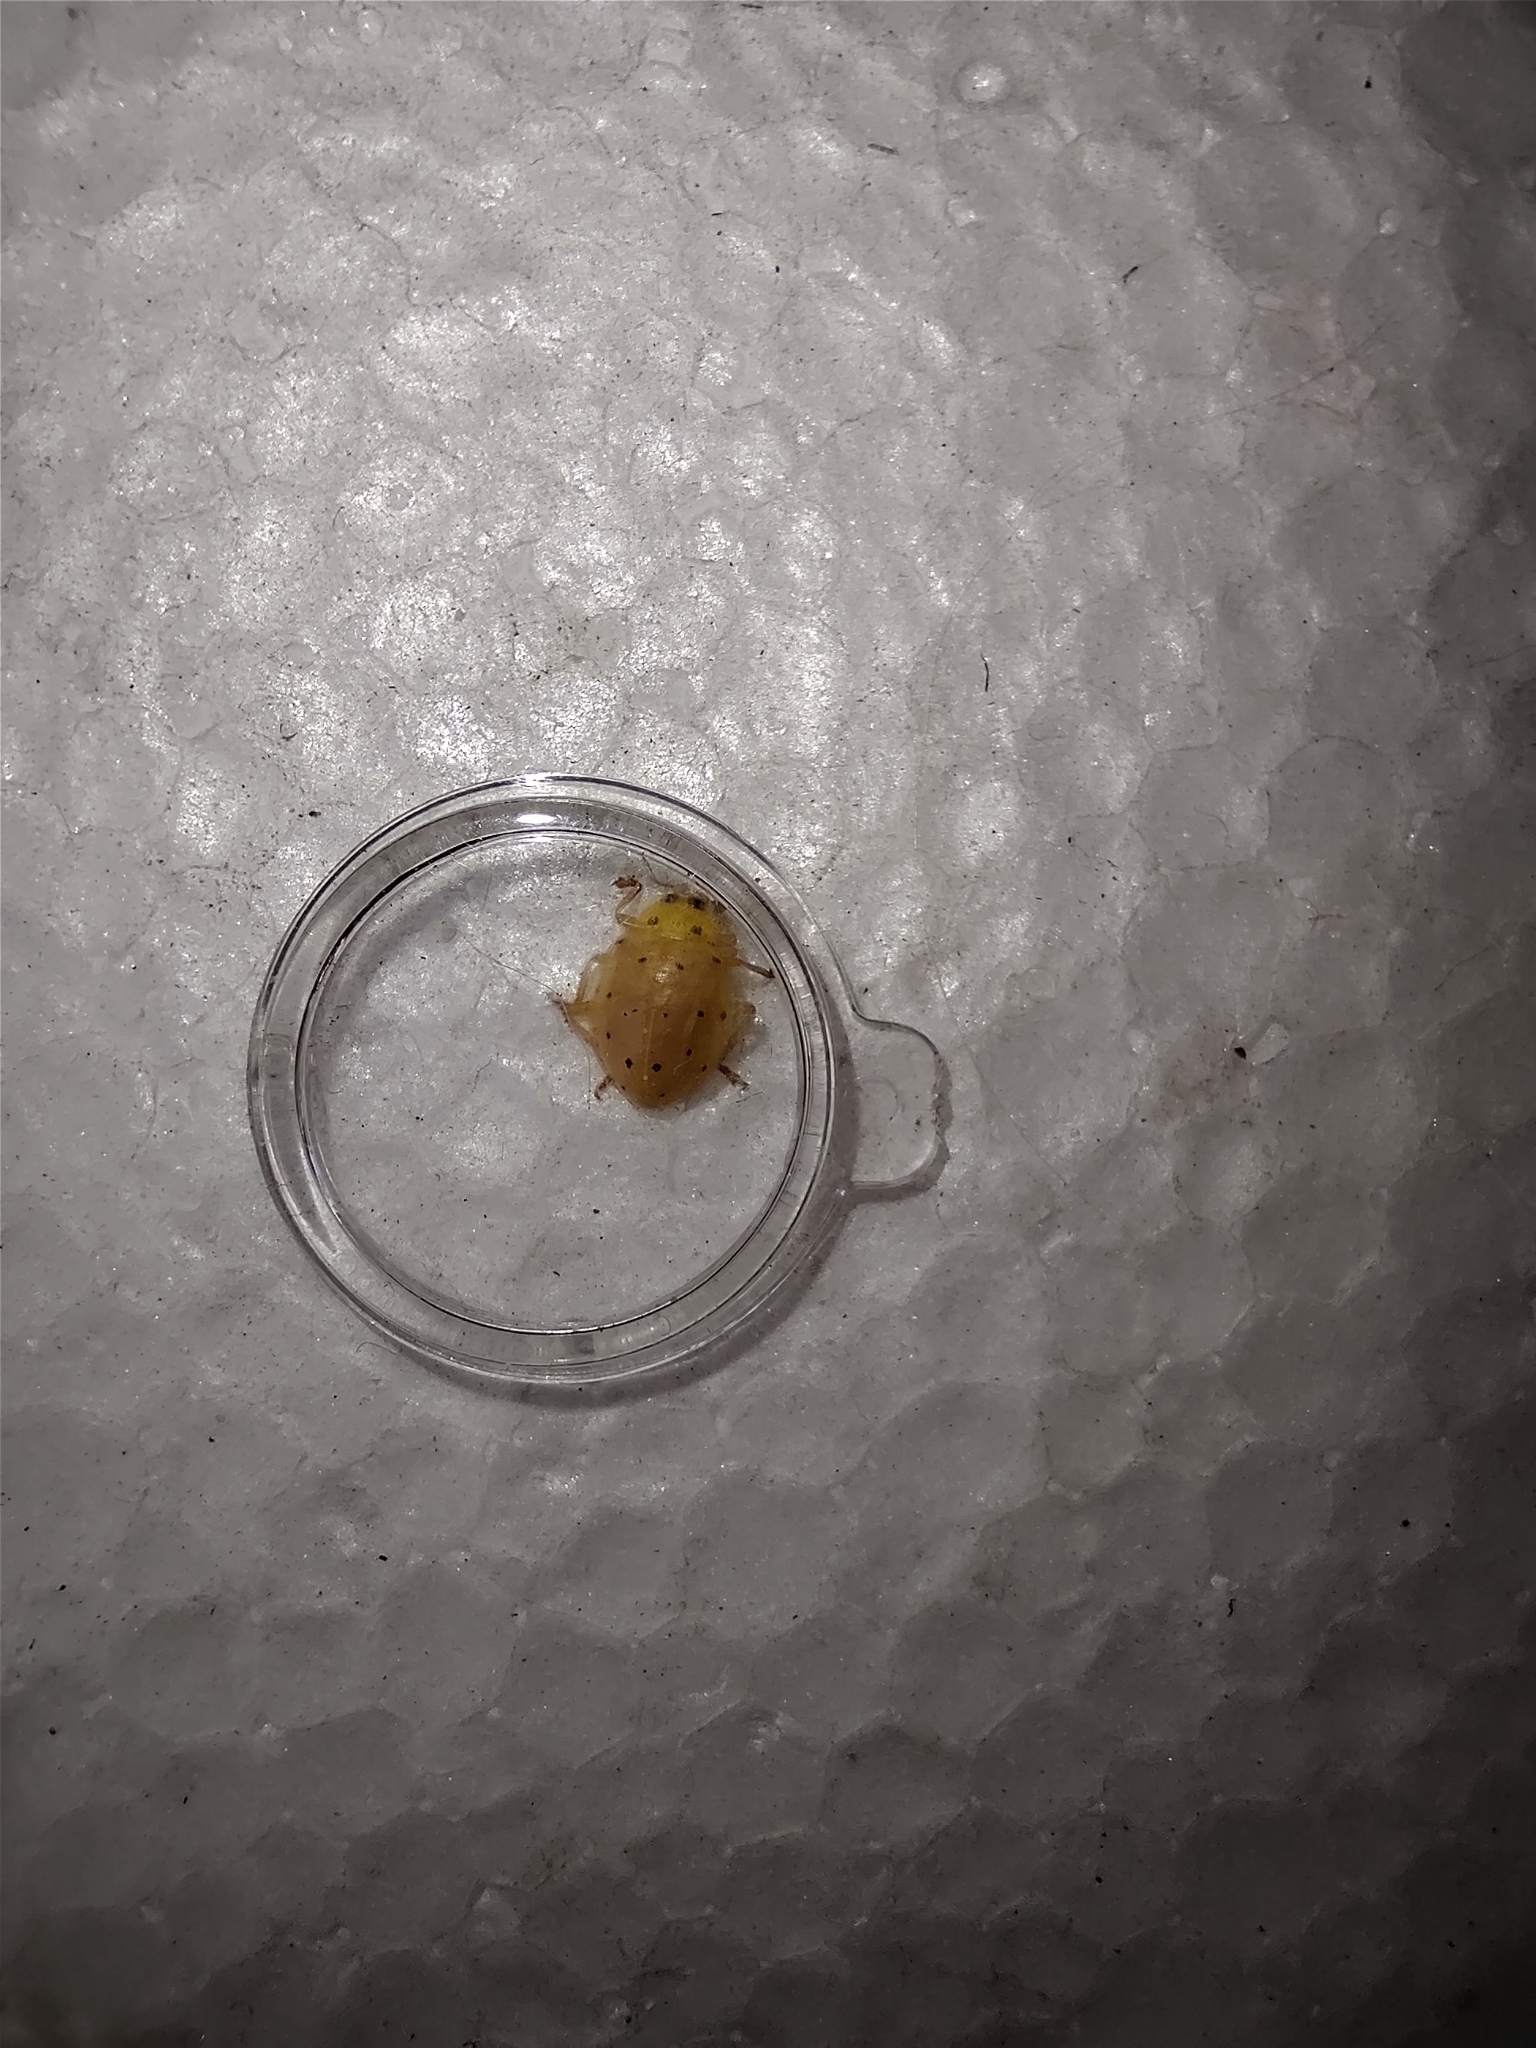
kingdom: Animalia
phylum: Arthropoda
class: Insecta
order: Coleoptera
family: Coccinellidae
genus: Neohalyzia
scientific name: Neohalyzia
